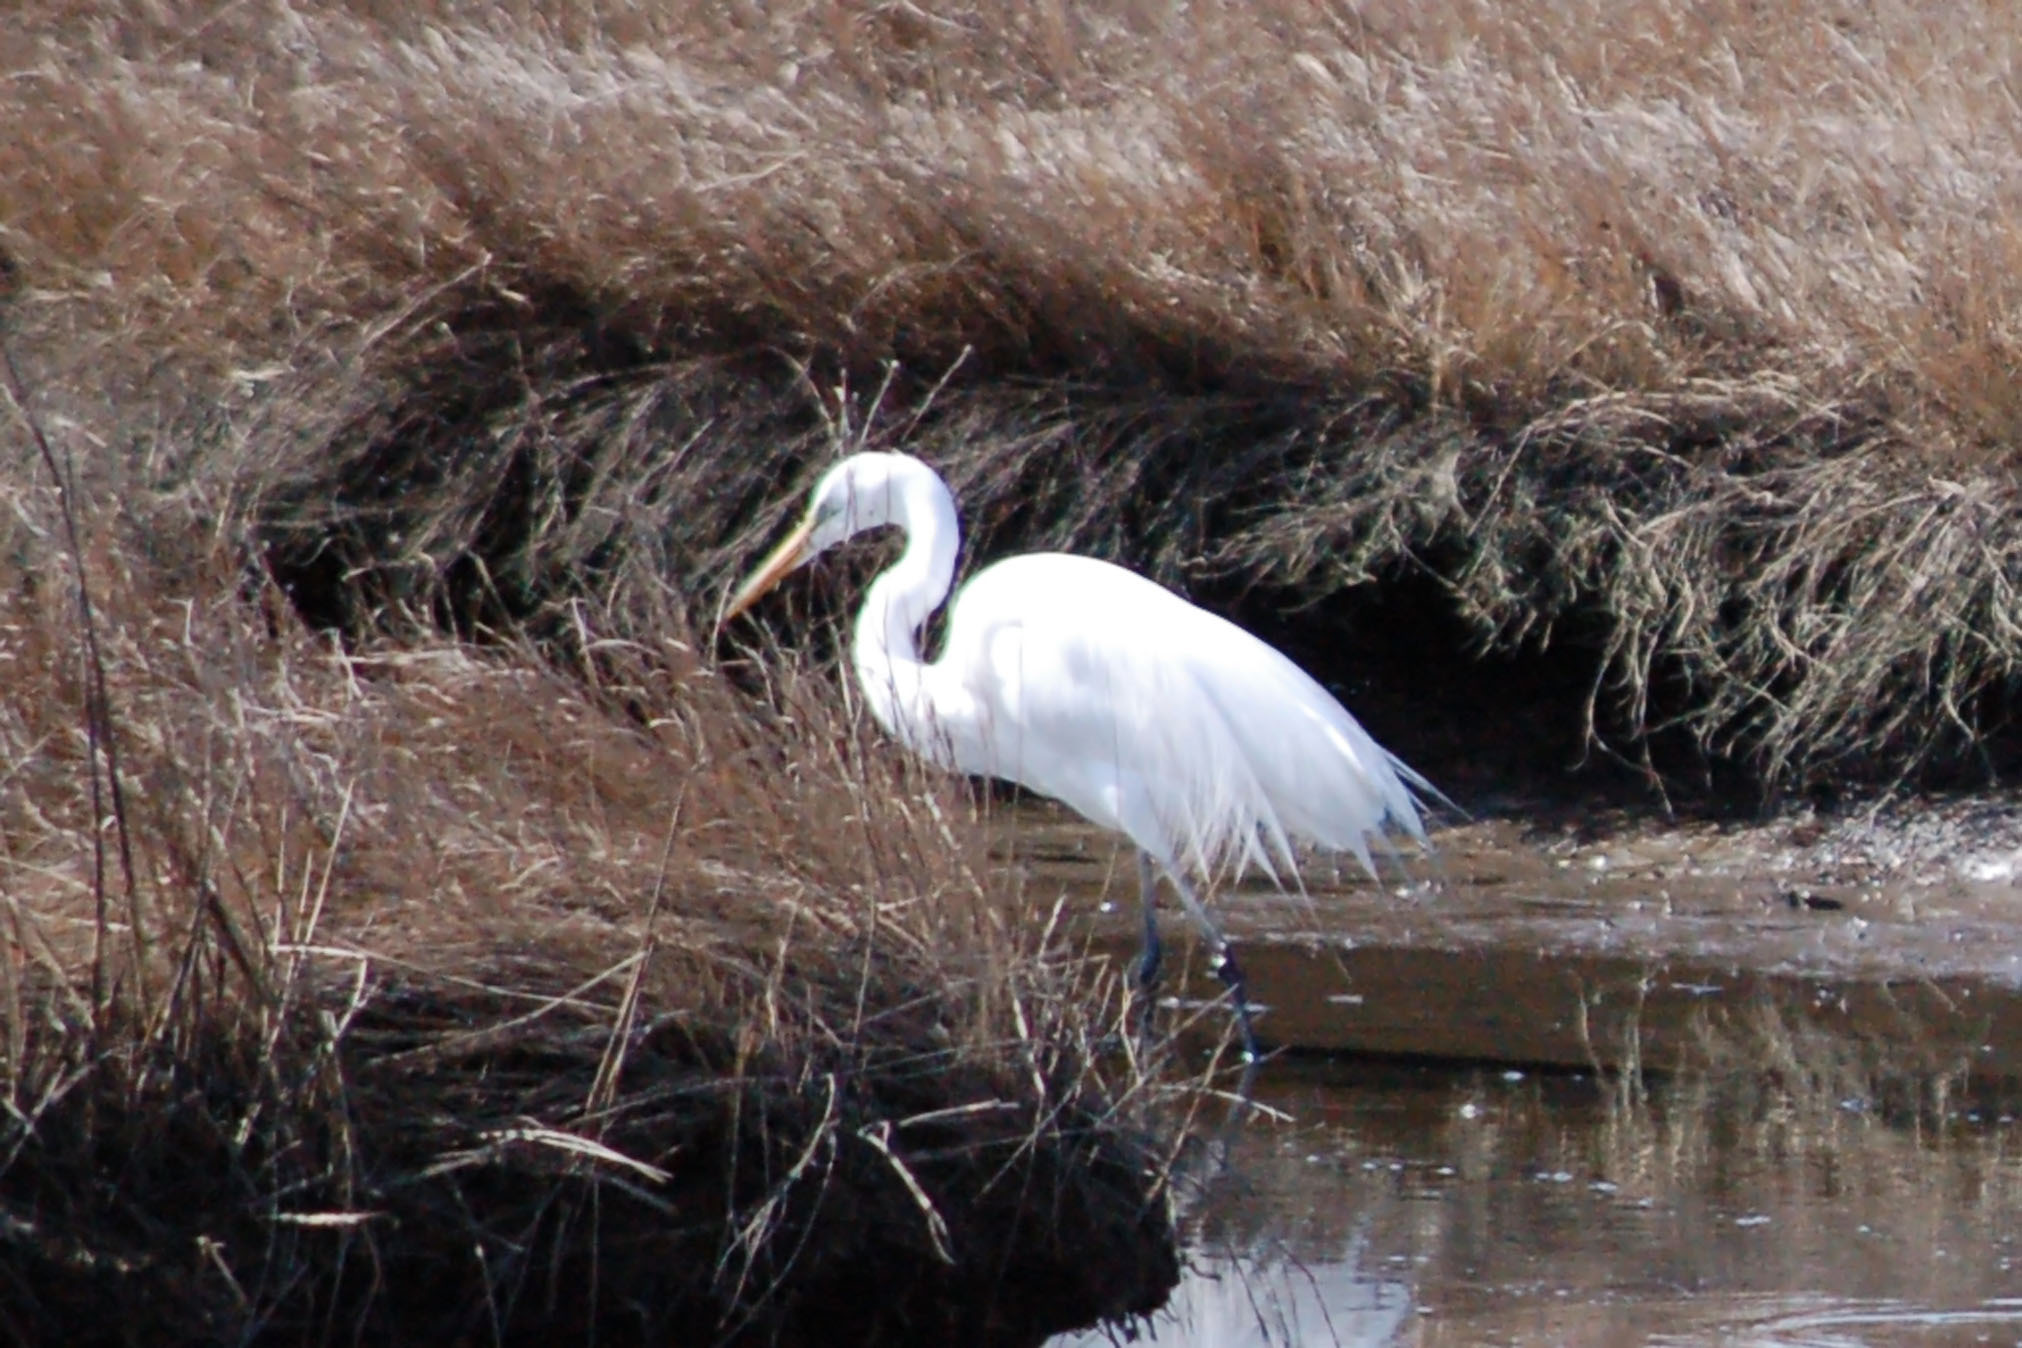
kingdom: Animalia
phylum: Chordata
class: Aves
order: Pelecaniformes
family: Ardeidae
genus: Ardea
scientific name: Ardea alba
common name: Great egret
